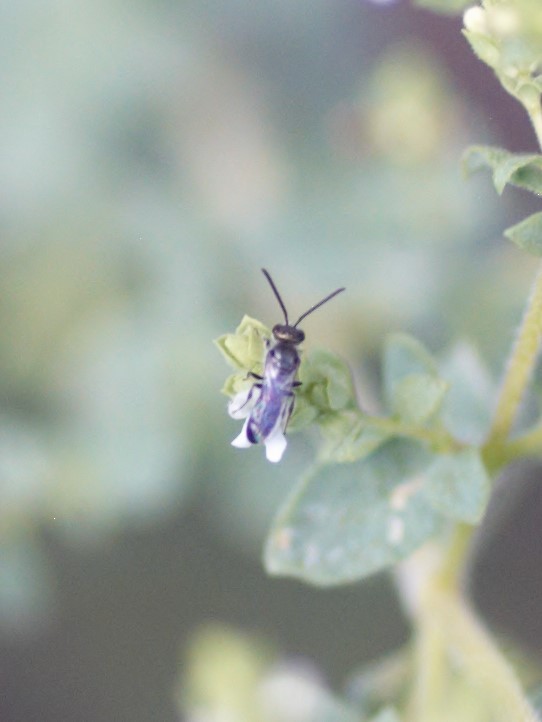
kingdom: Animalia
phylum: Arthropoda
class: Insecta
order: Hymenoptera
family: Halictidae
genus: Dialictus
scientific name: Dialictus
